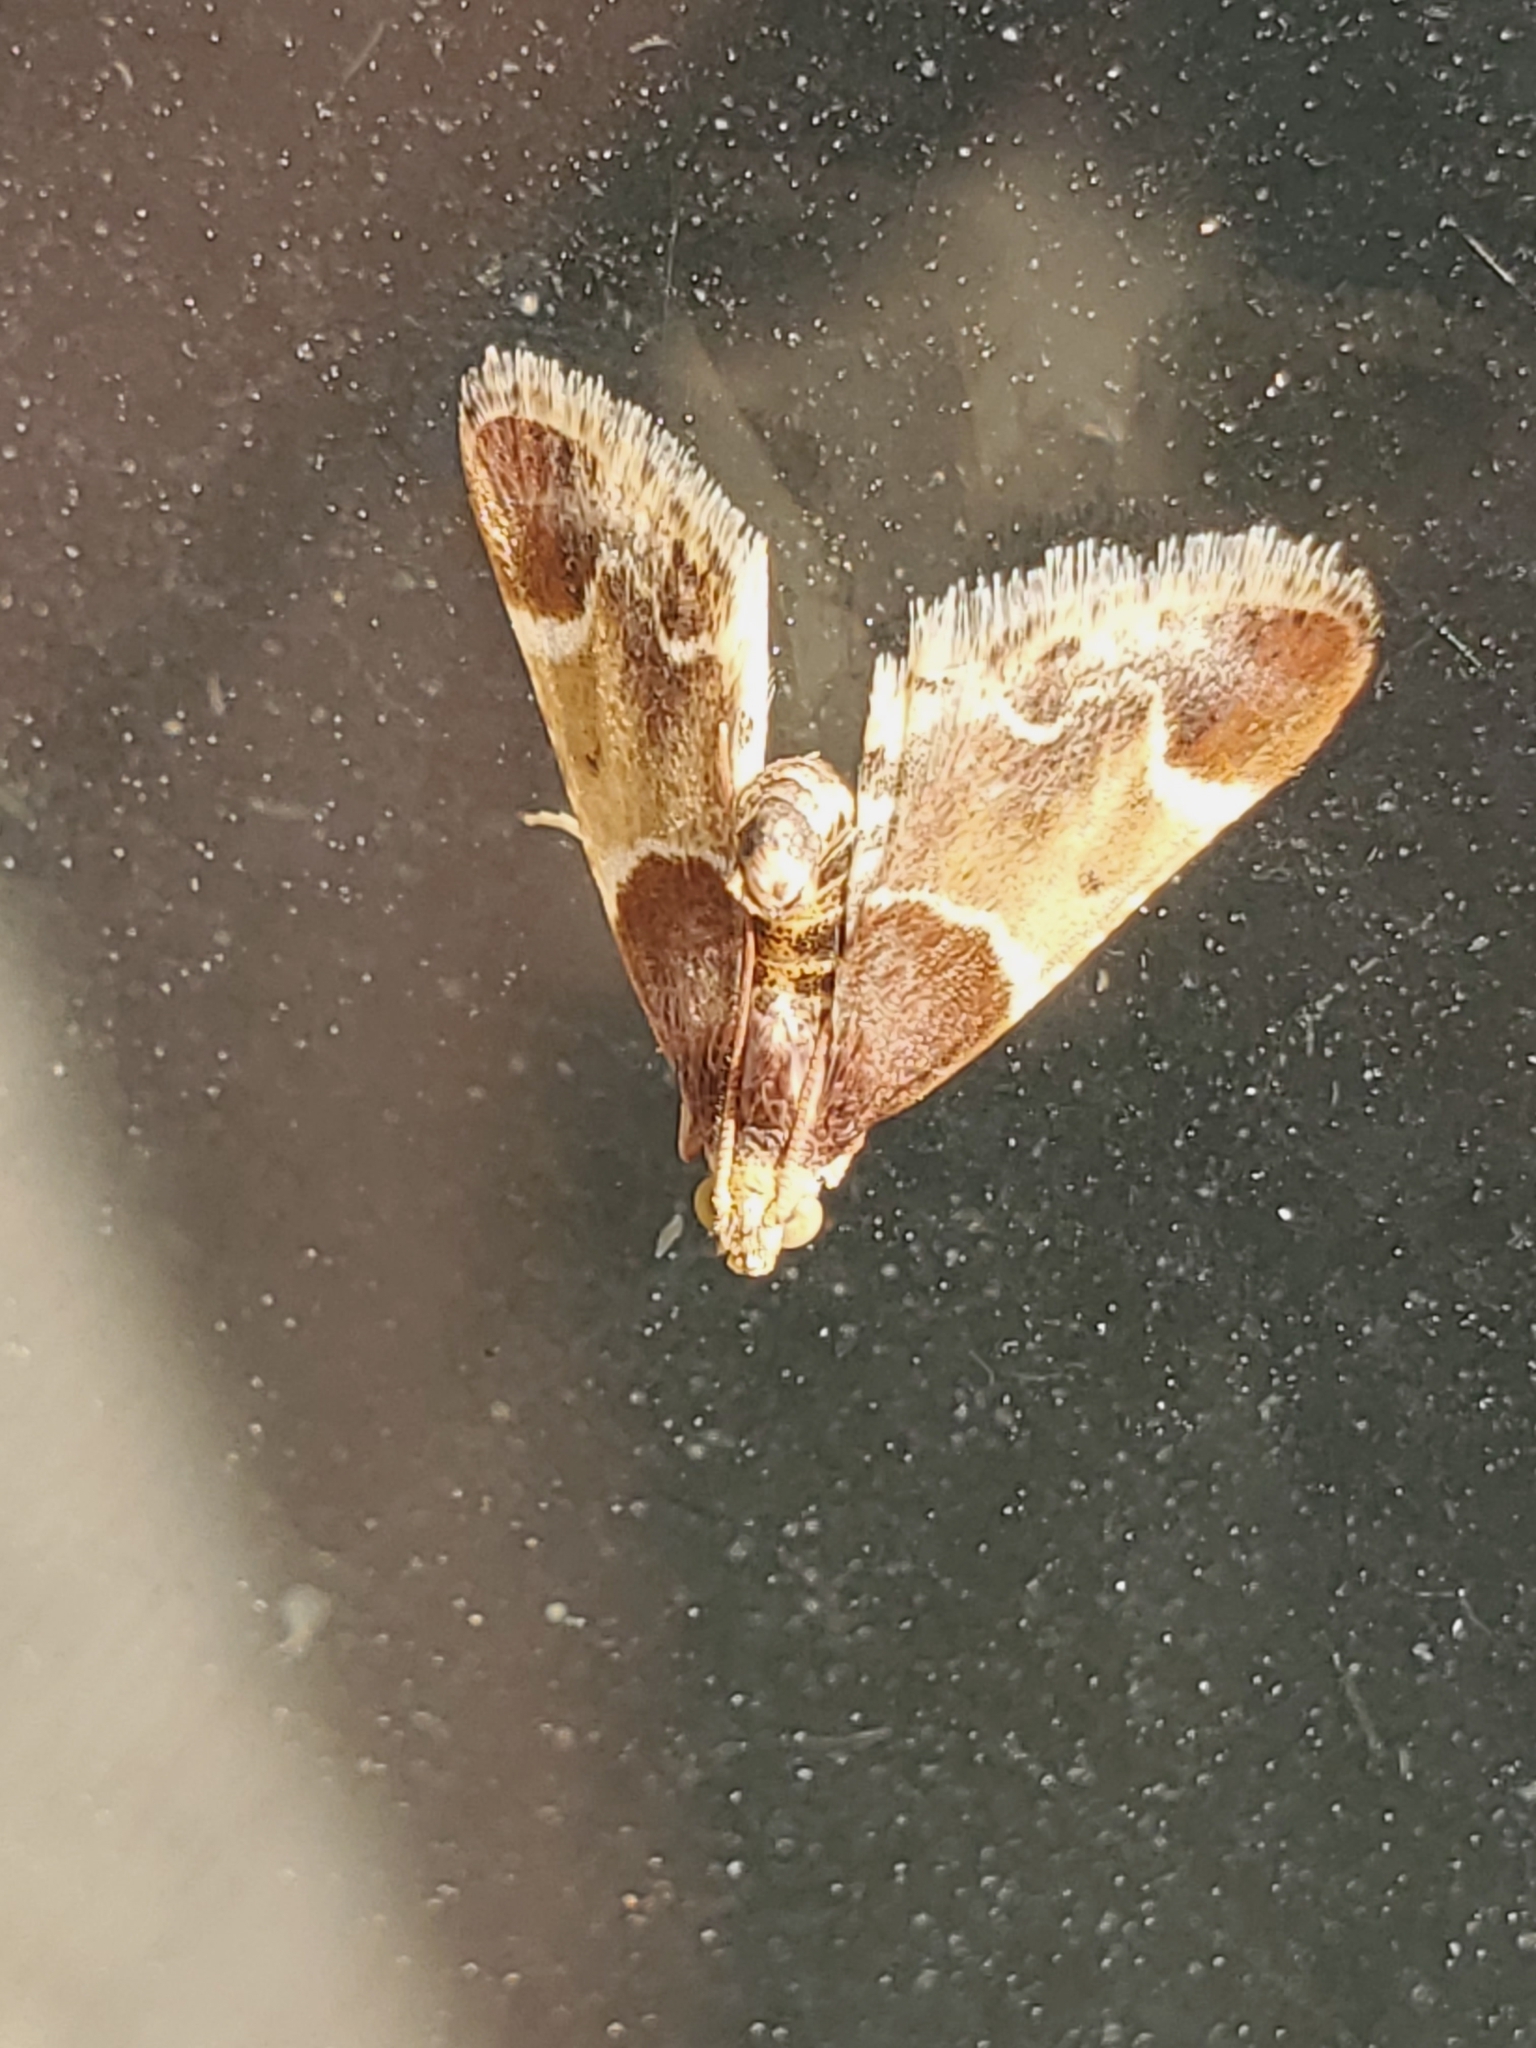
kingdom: Animalia
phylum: Arthropoda
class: Insecta
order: Lepidoptera
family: Pyralidae
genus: Pyralis
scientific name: Pyralis farinalis
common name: Meal moth
